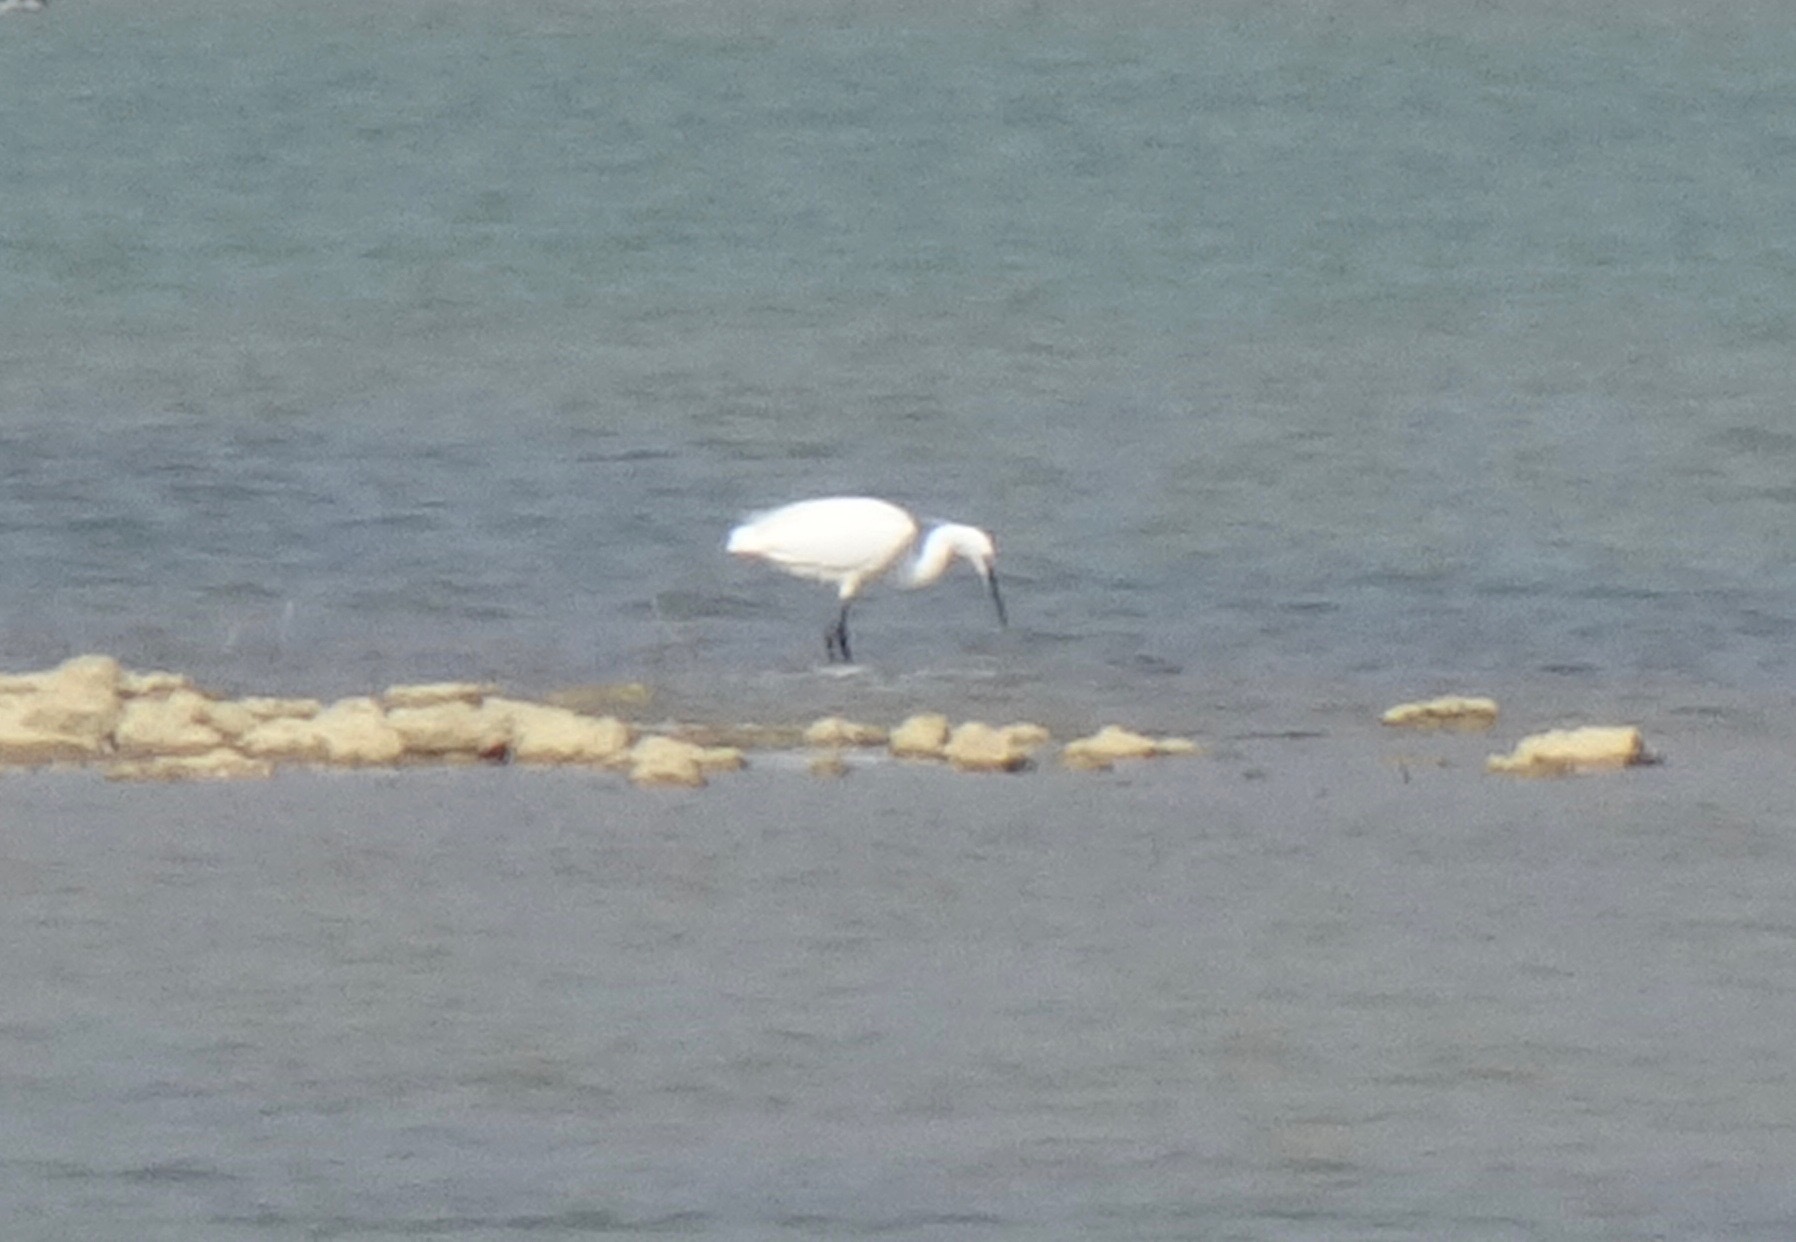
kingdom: Animalia
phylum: Chordata
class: Aves
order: Pelecaniformes
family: Ardeidae
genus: Egretta
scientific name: Egretta garzetta
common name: Little egret
